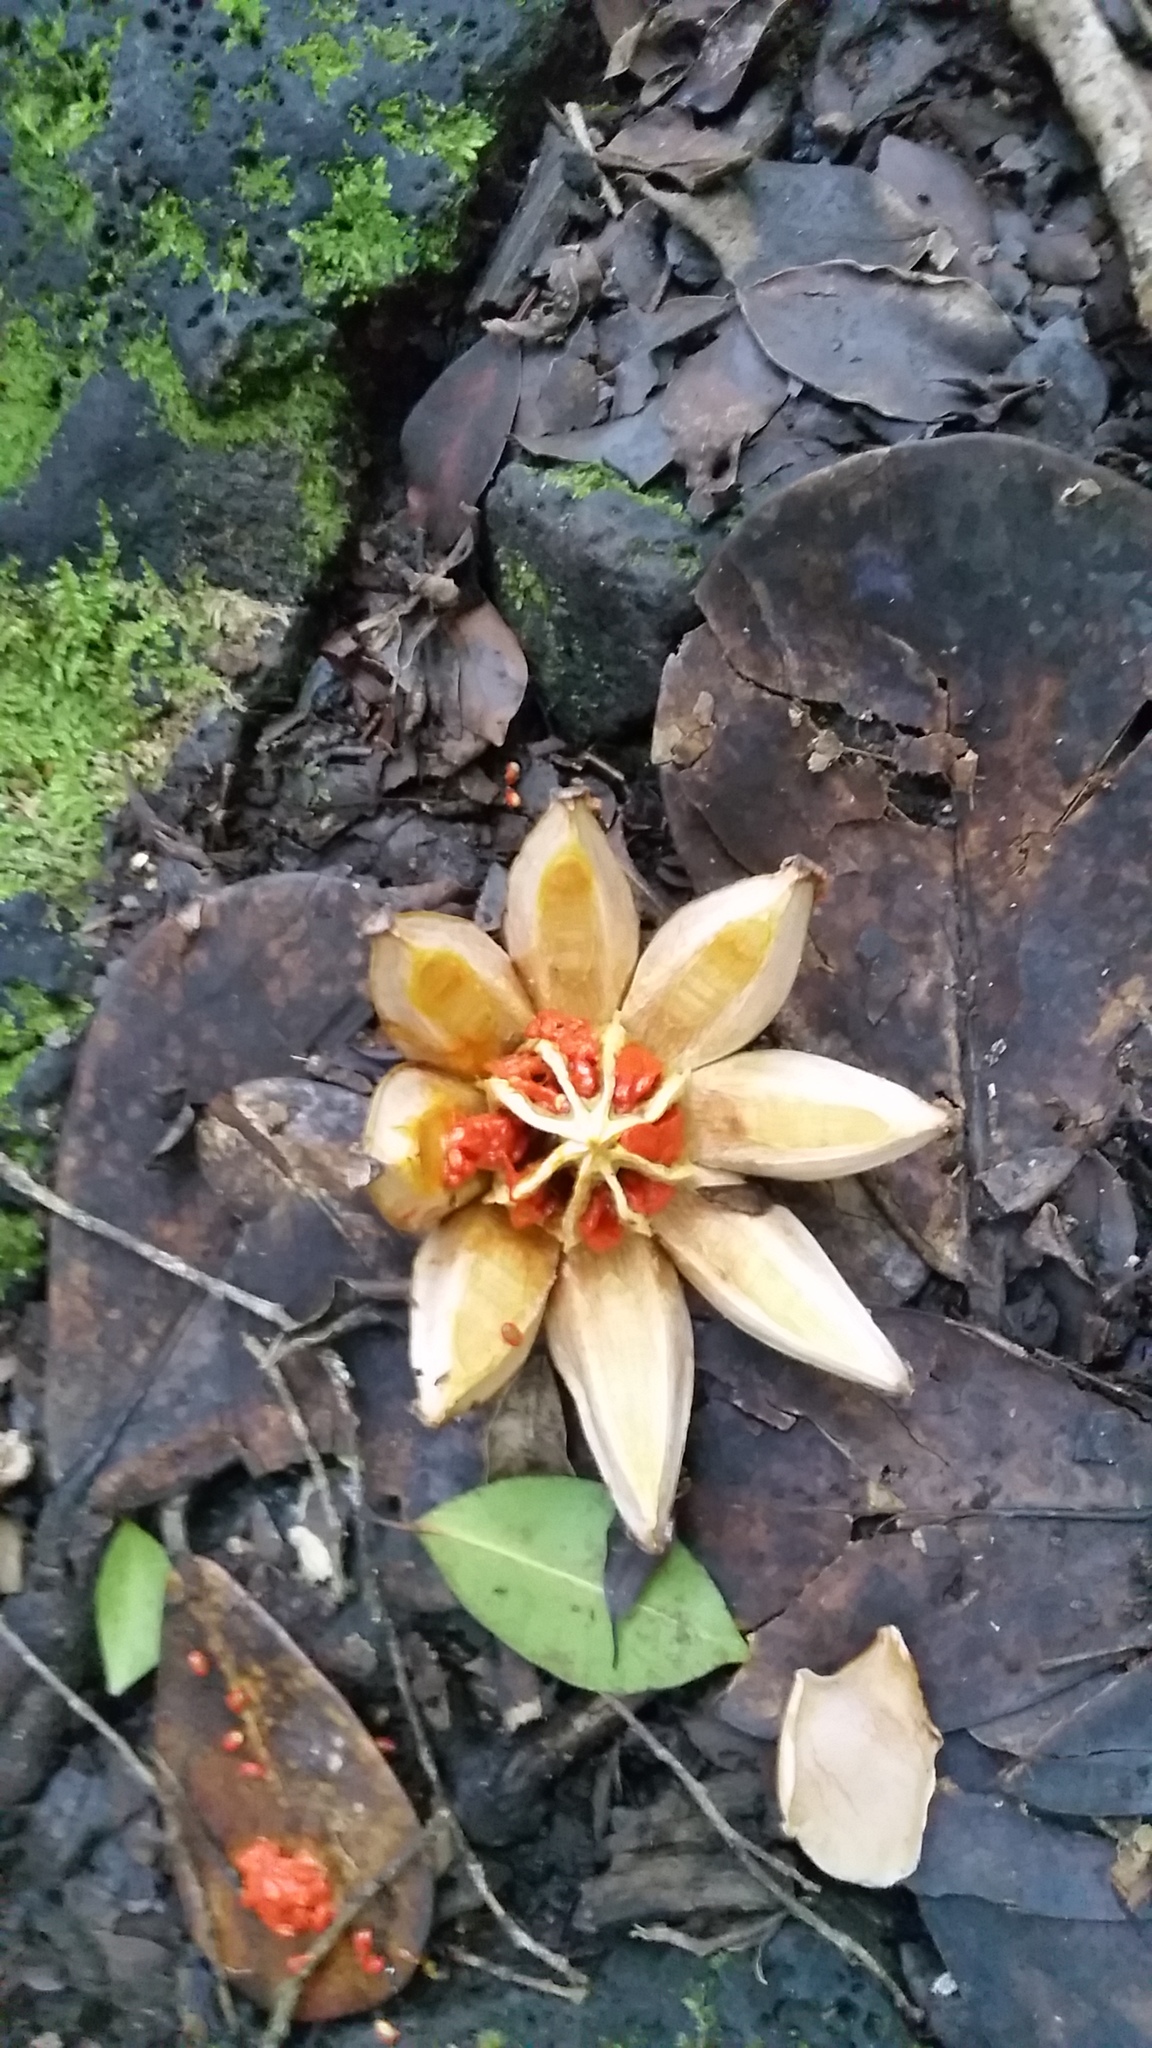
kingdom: Plantae
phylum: Tracheophyta
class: Magnoliopsida
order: Malpighiales
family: Clusiaceae
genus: Clusia
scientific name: Clusia rosea
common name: Scotch attorney
